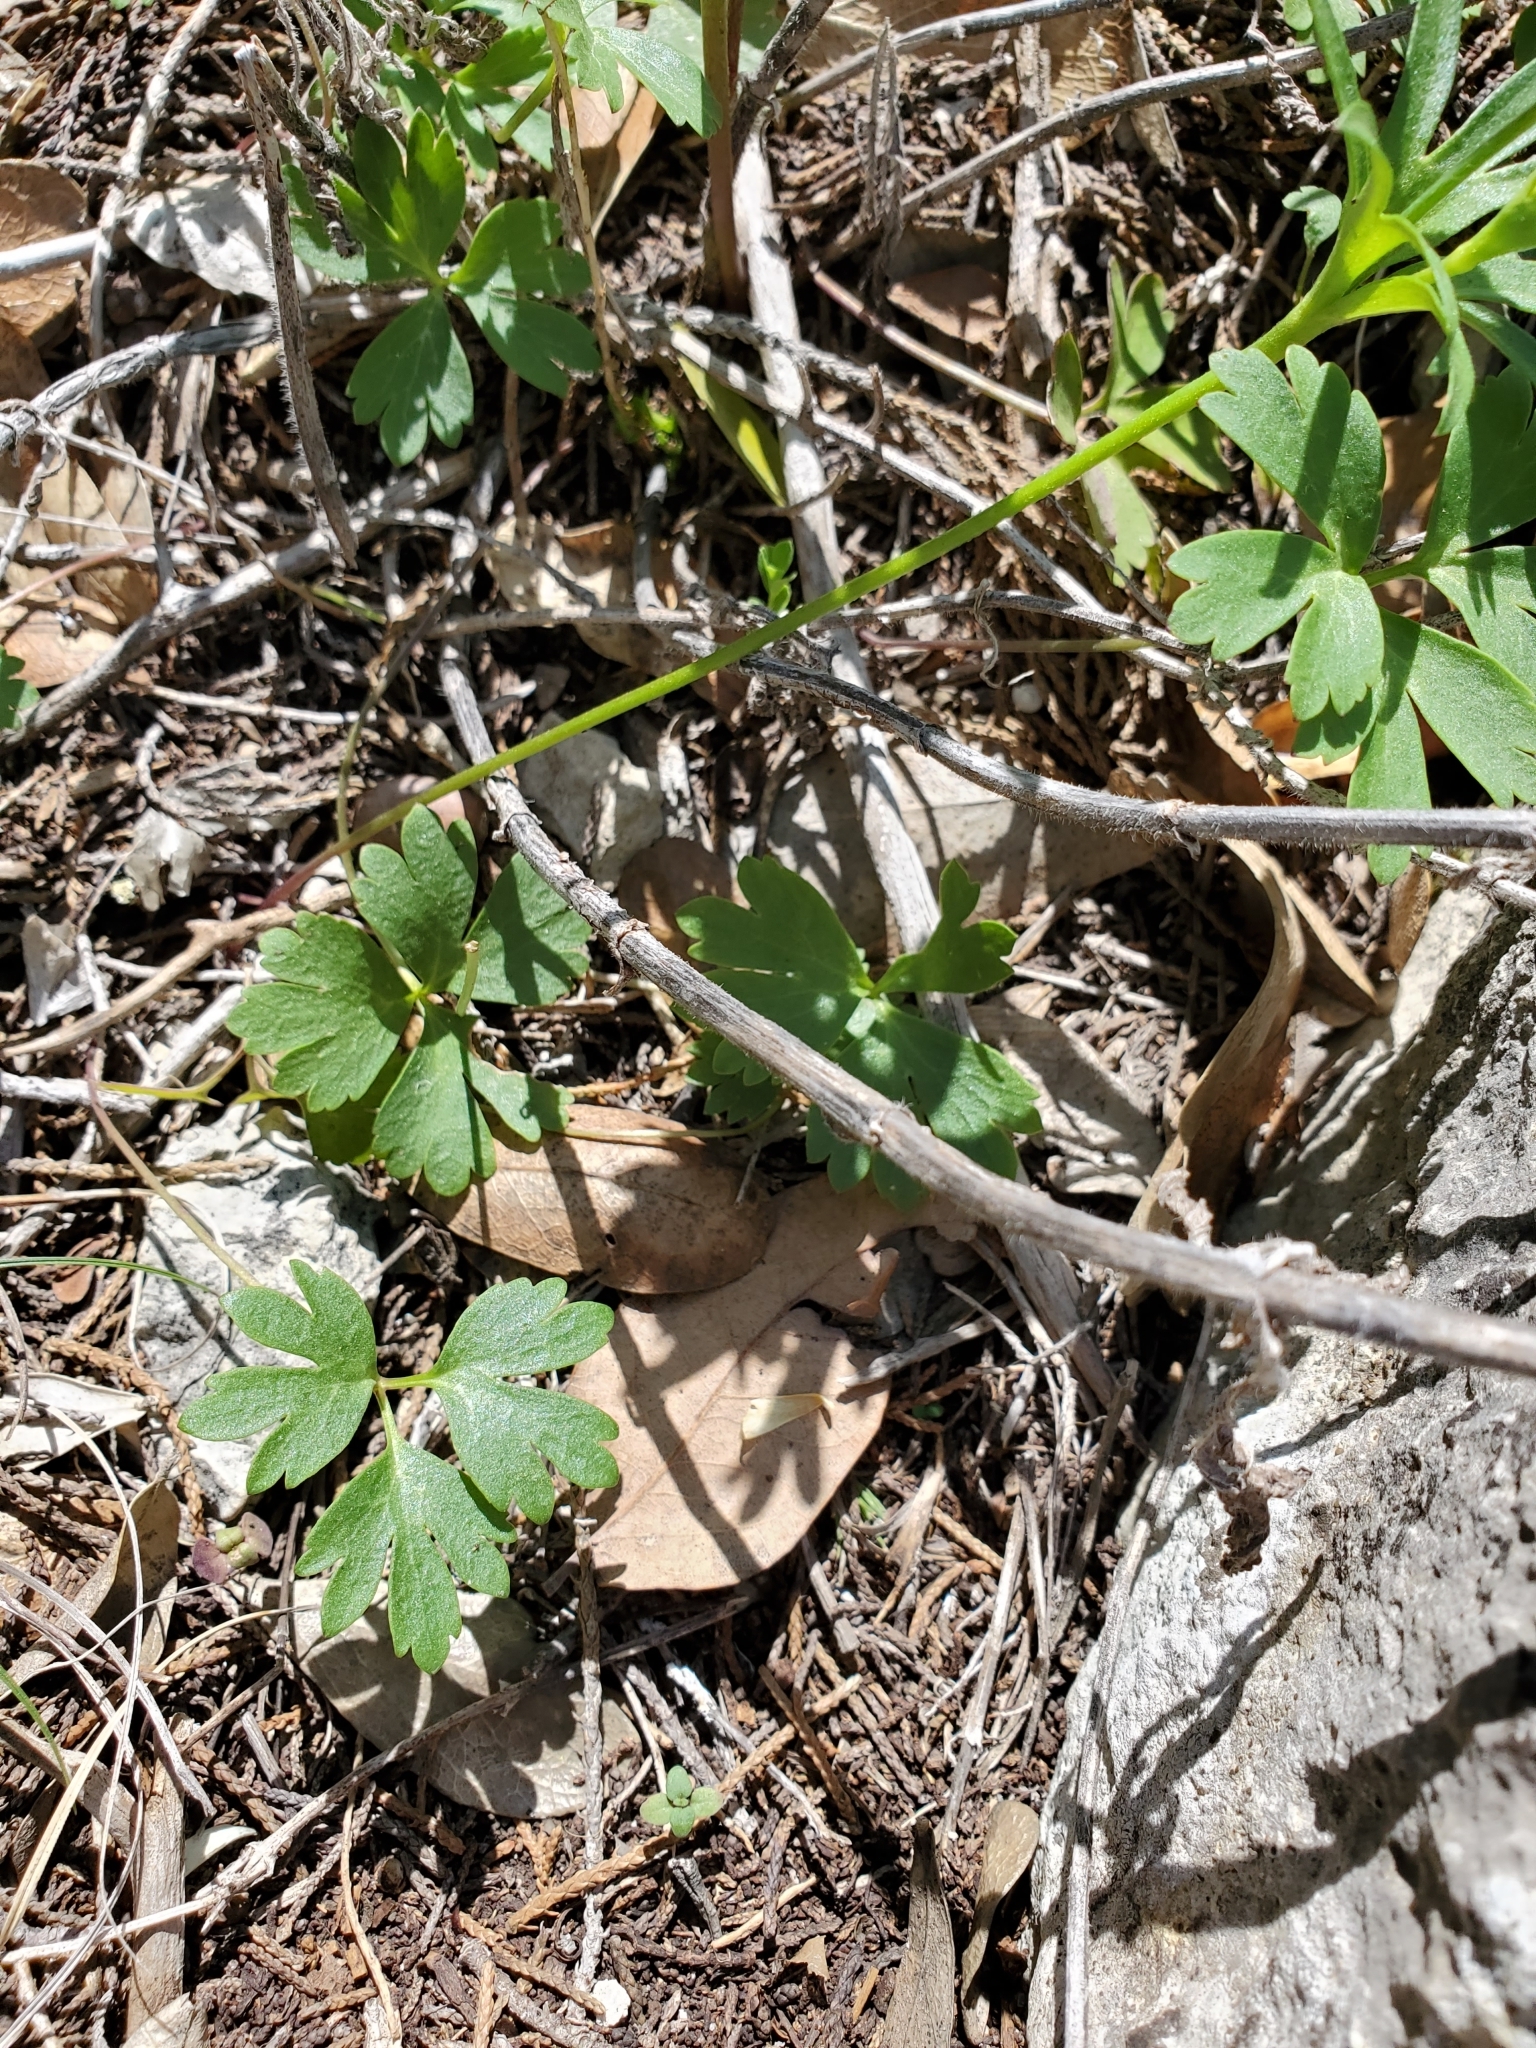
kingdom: Plantae
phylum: Tracheophyta
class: Magnoliopsida
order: Ranunculales
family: Ranunculaceae
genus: Anemone
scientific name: Anemone edwardsiana
